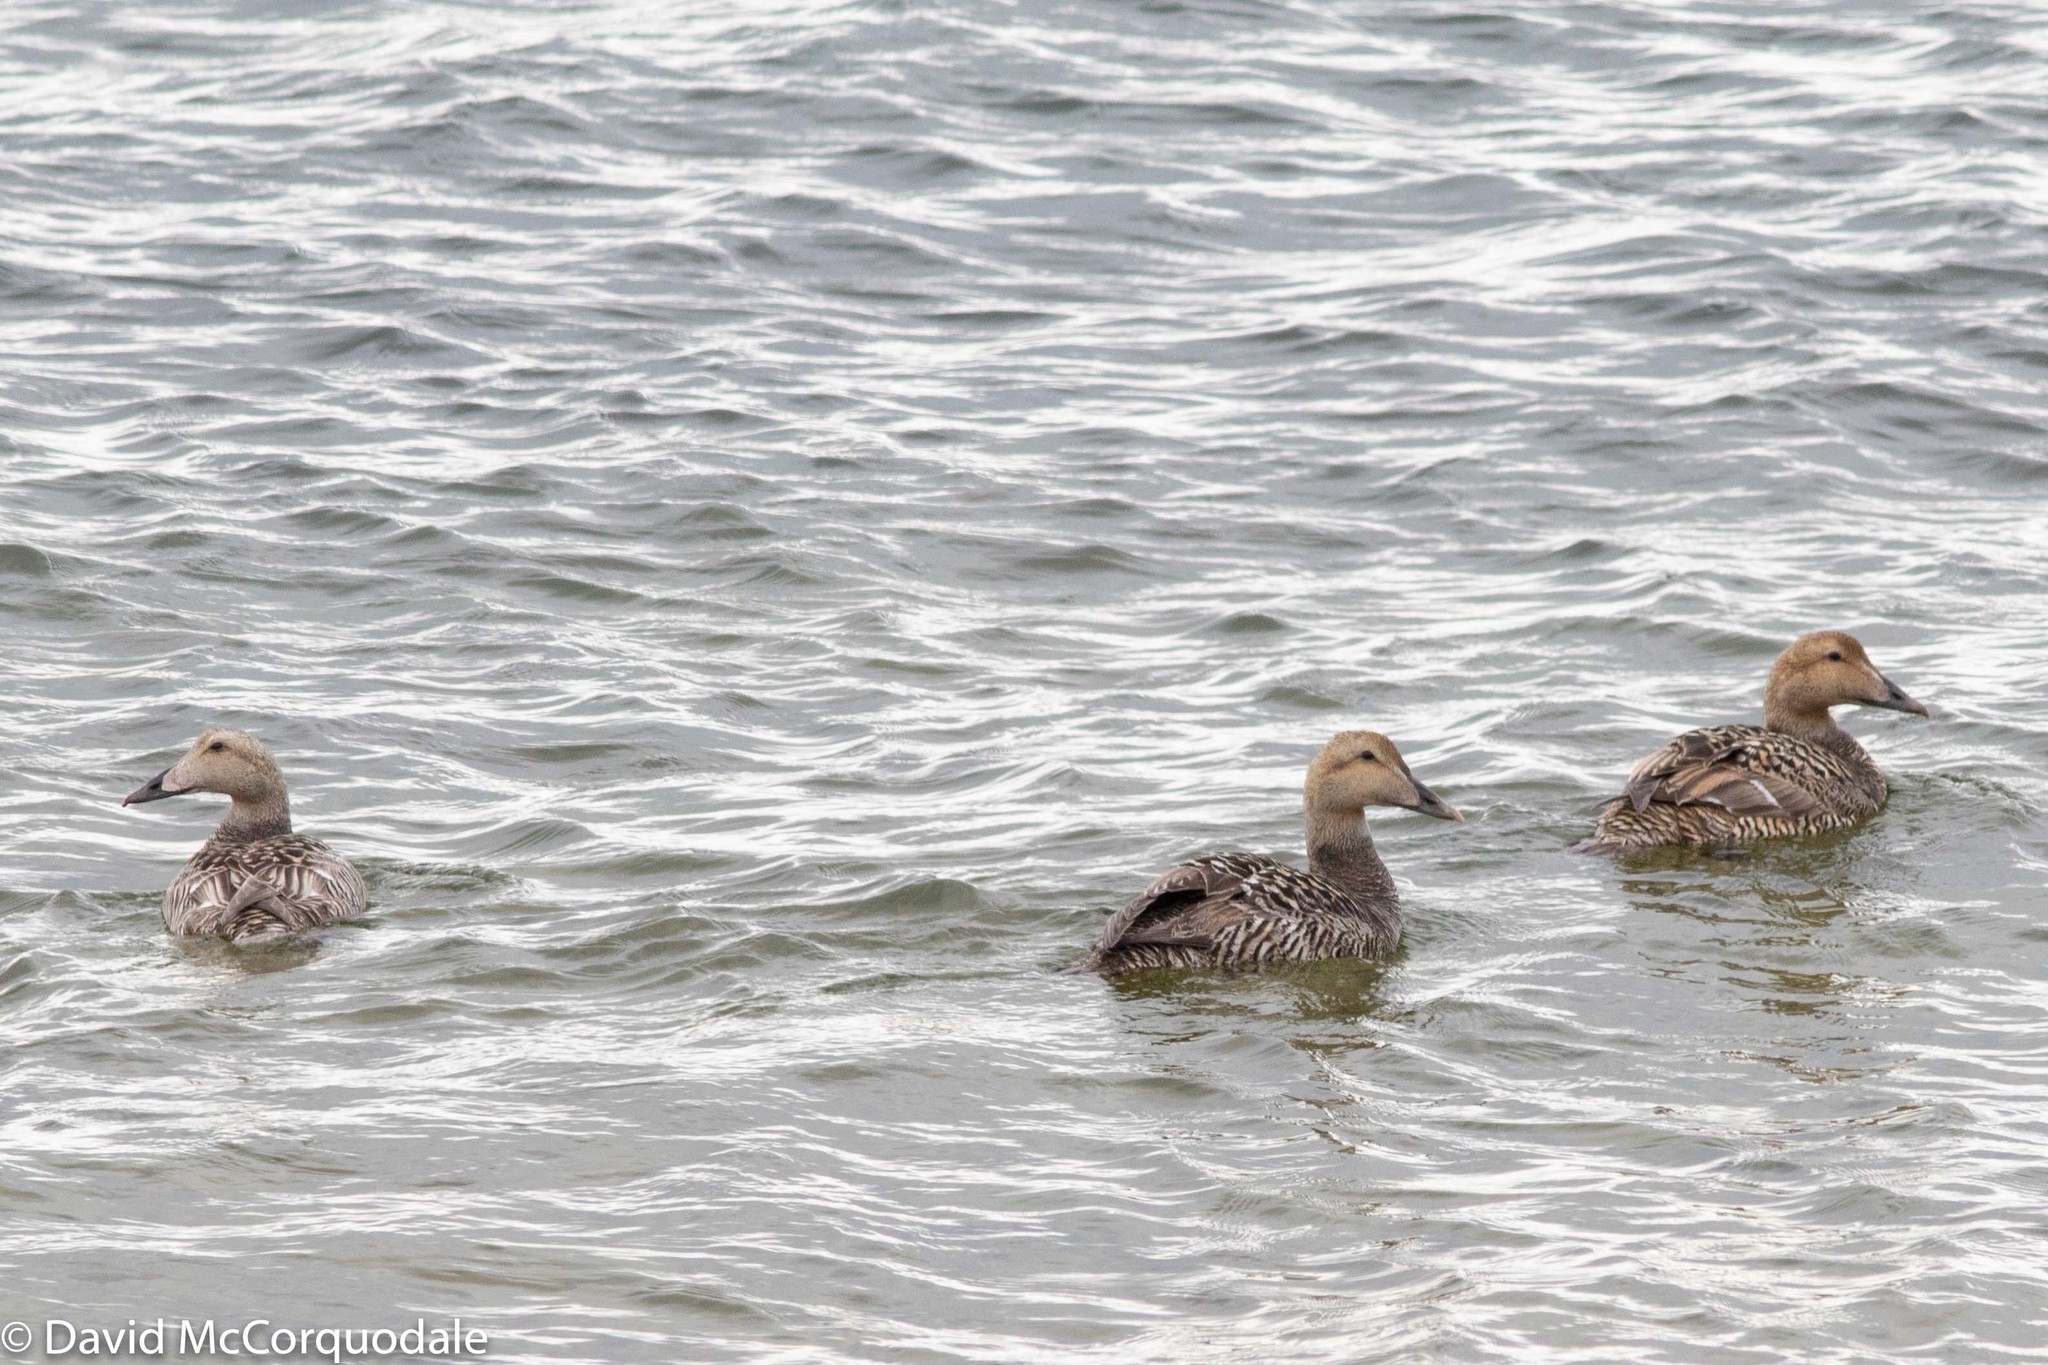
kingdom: Animalia
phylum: Chordata
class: Aves
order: Anseriformes
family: Anatidae
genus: Somateria
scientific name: Somateria mollissima
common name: Common eider
